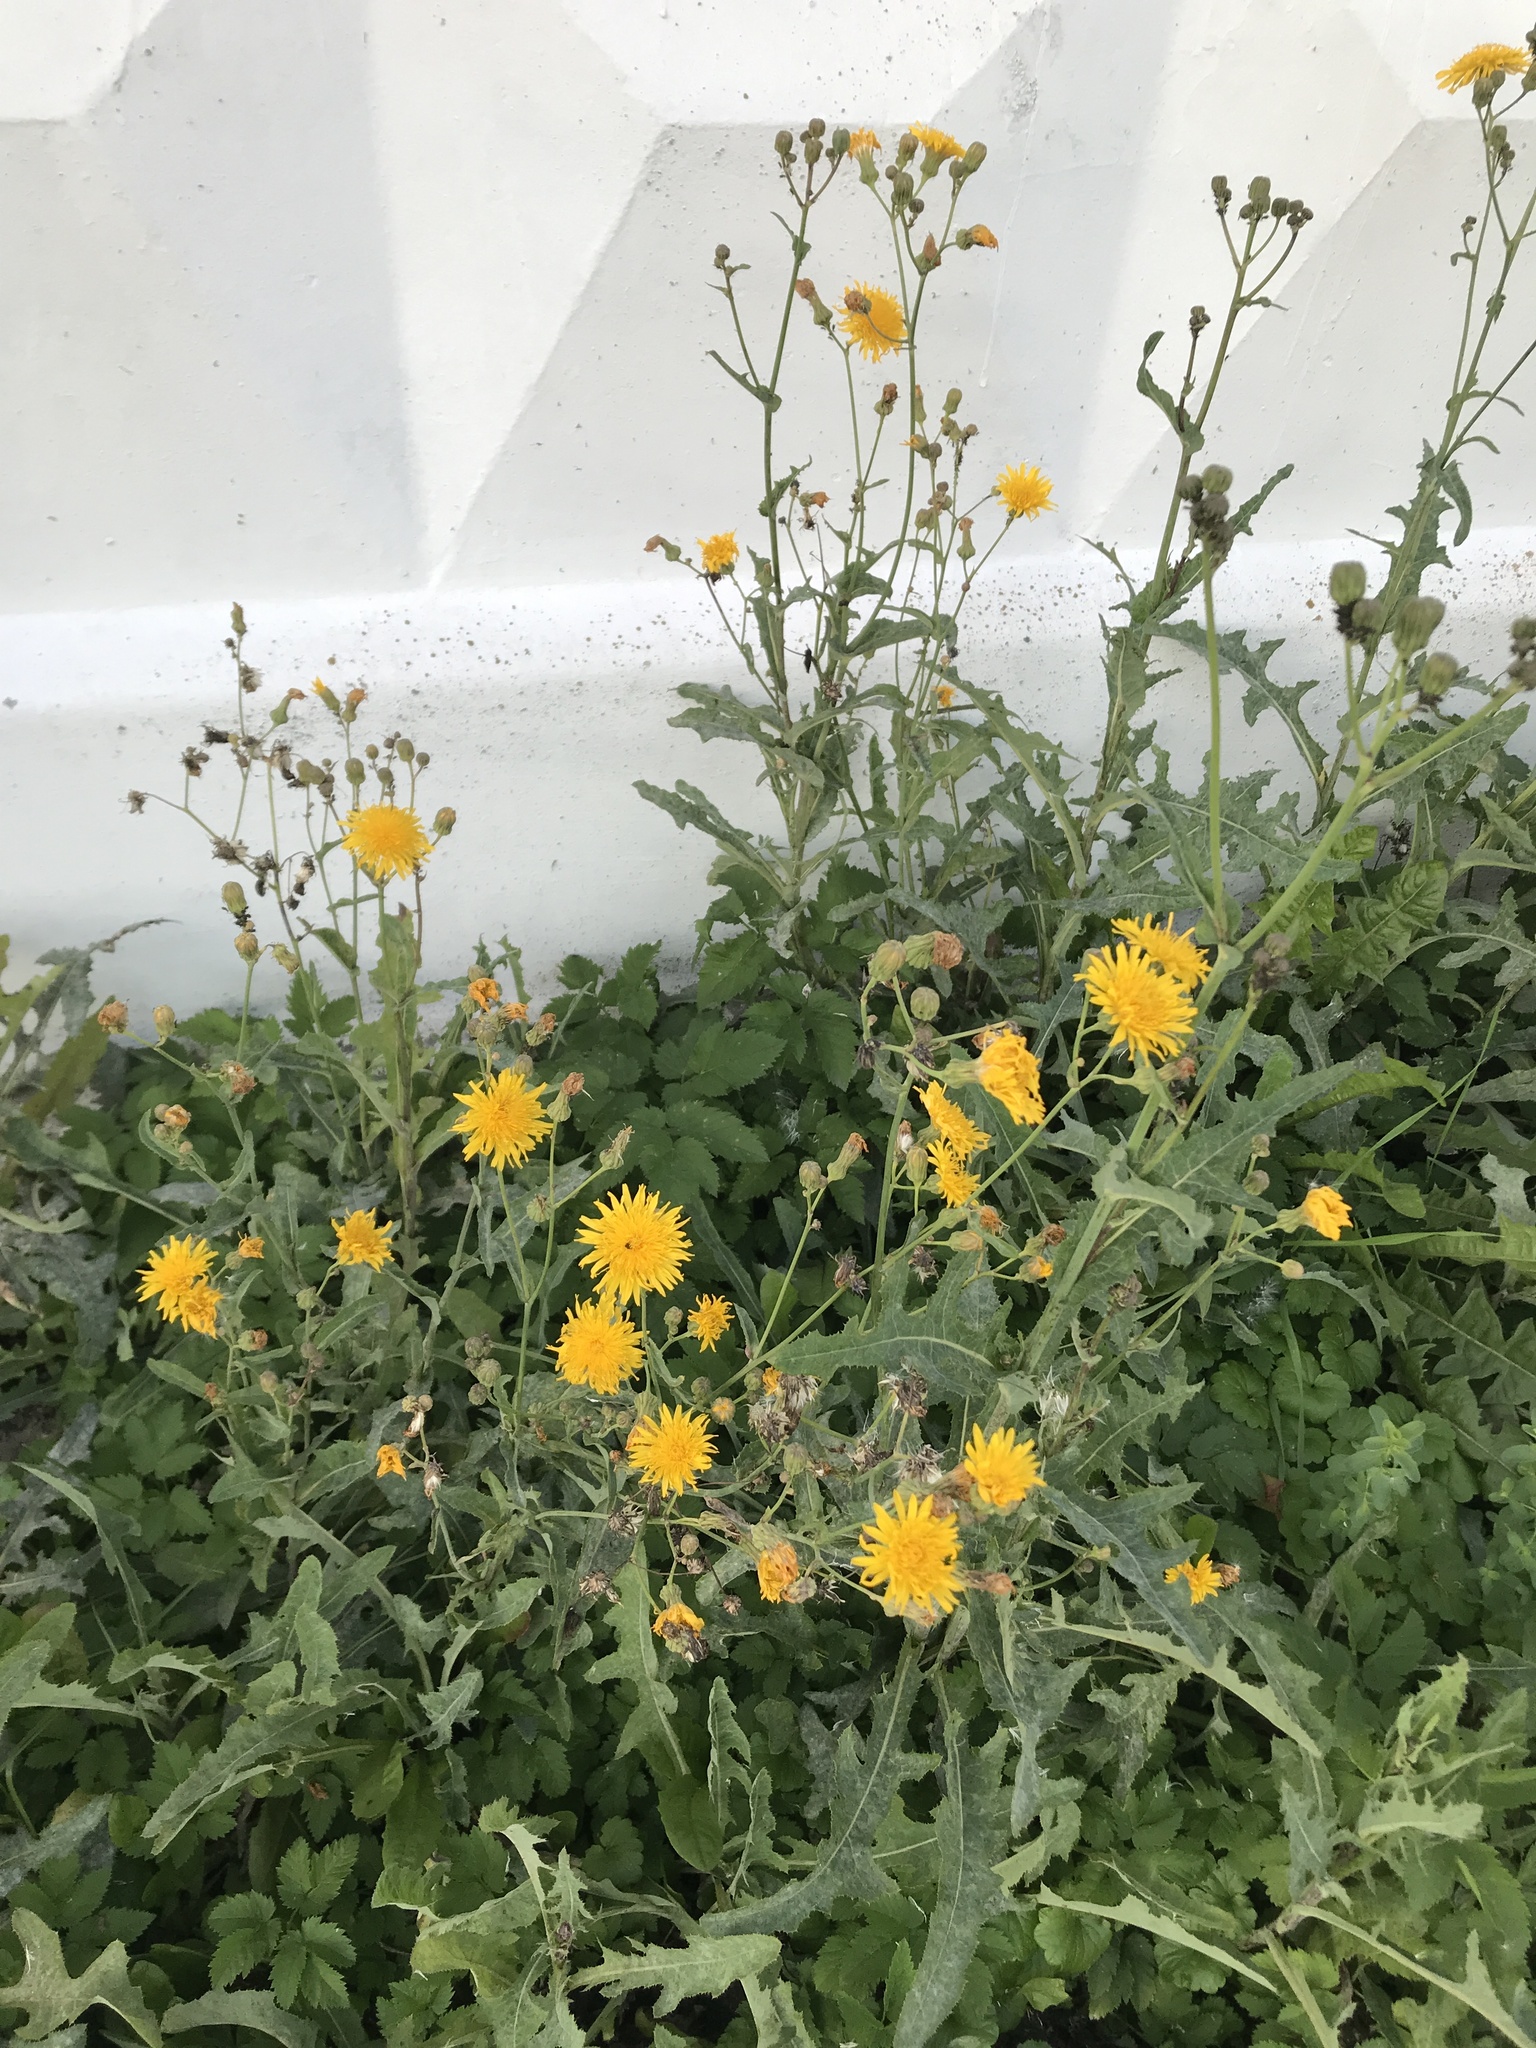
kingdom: Plantae
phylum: Tracheophyta
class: Magnoliopsida
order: Asterales
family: Asteraceae
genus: Sonchus
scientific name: Sonchus arvensis
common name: Perennial sow-thistle
